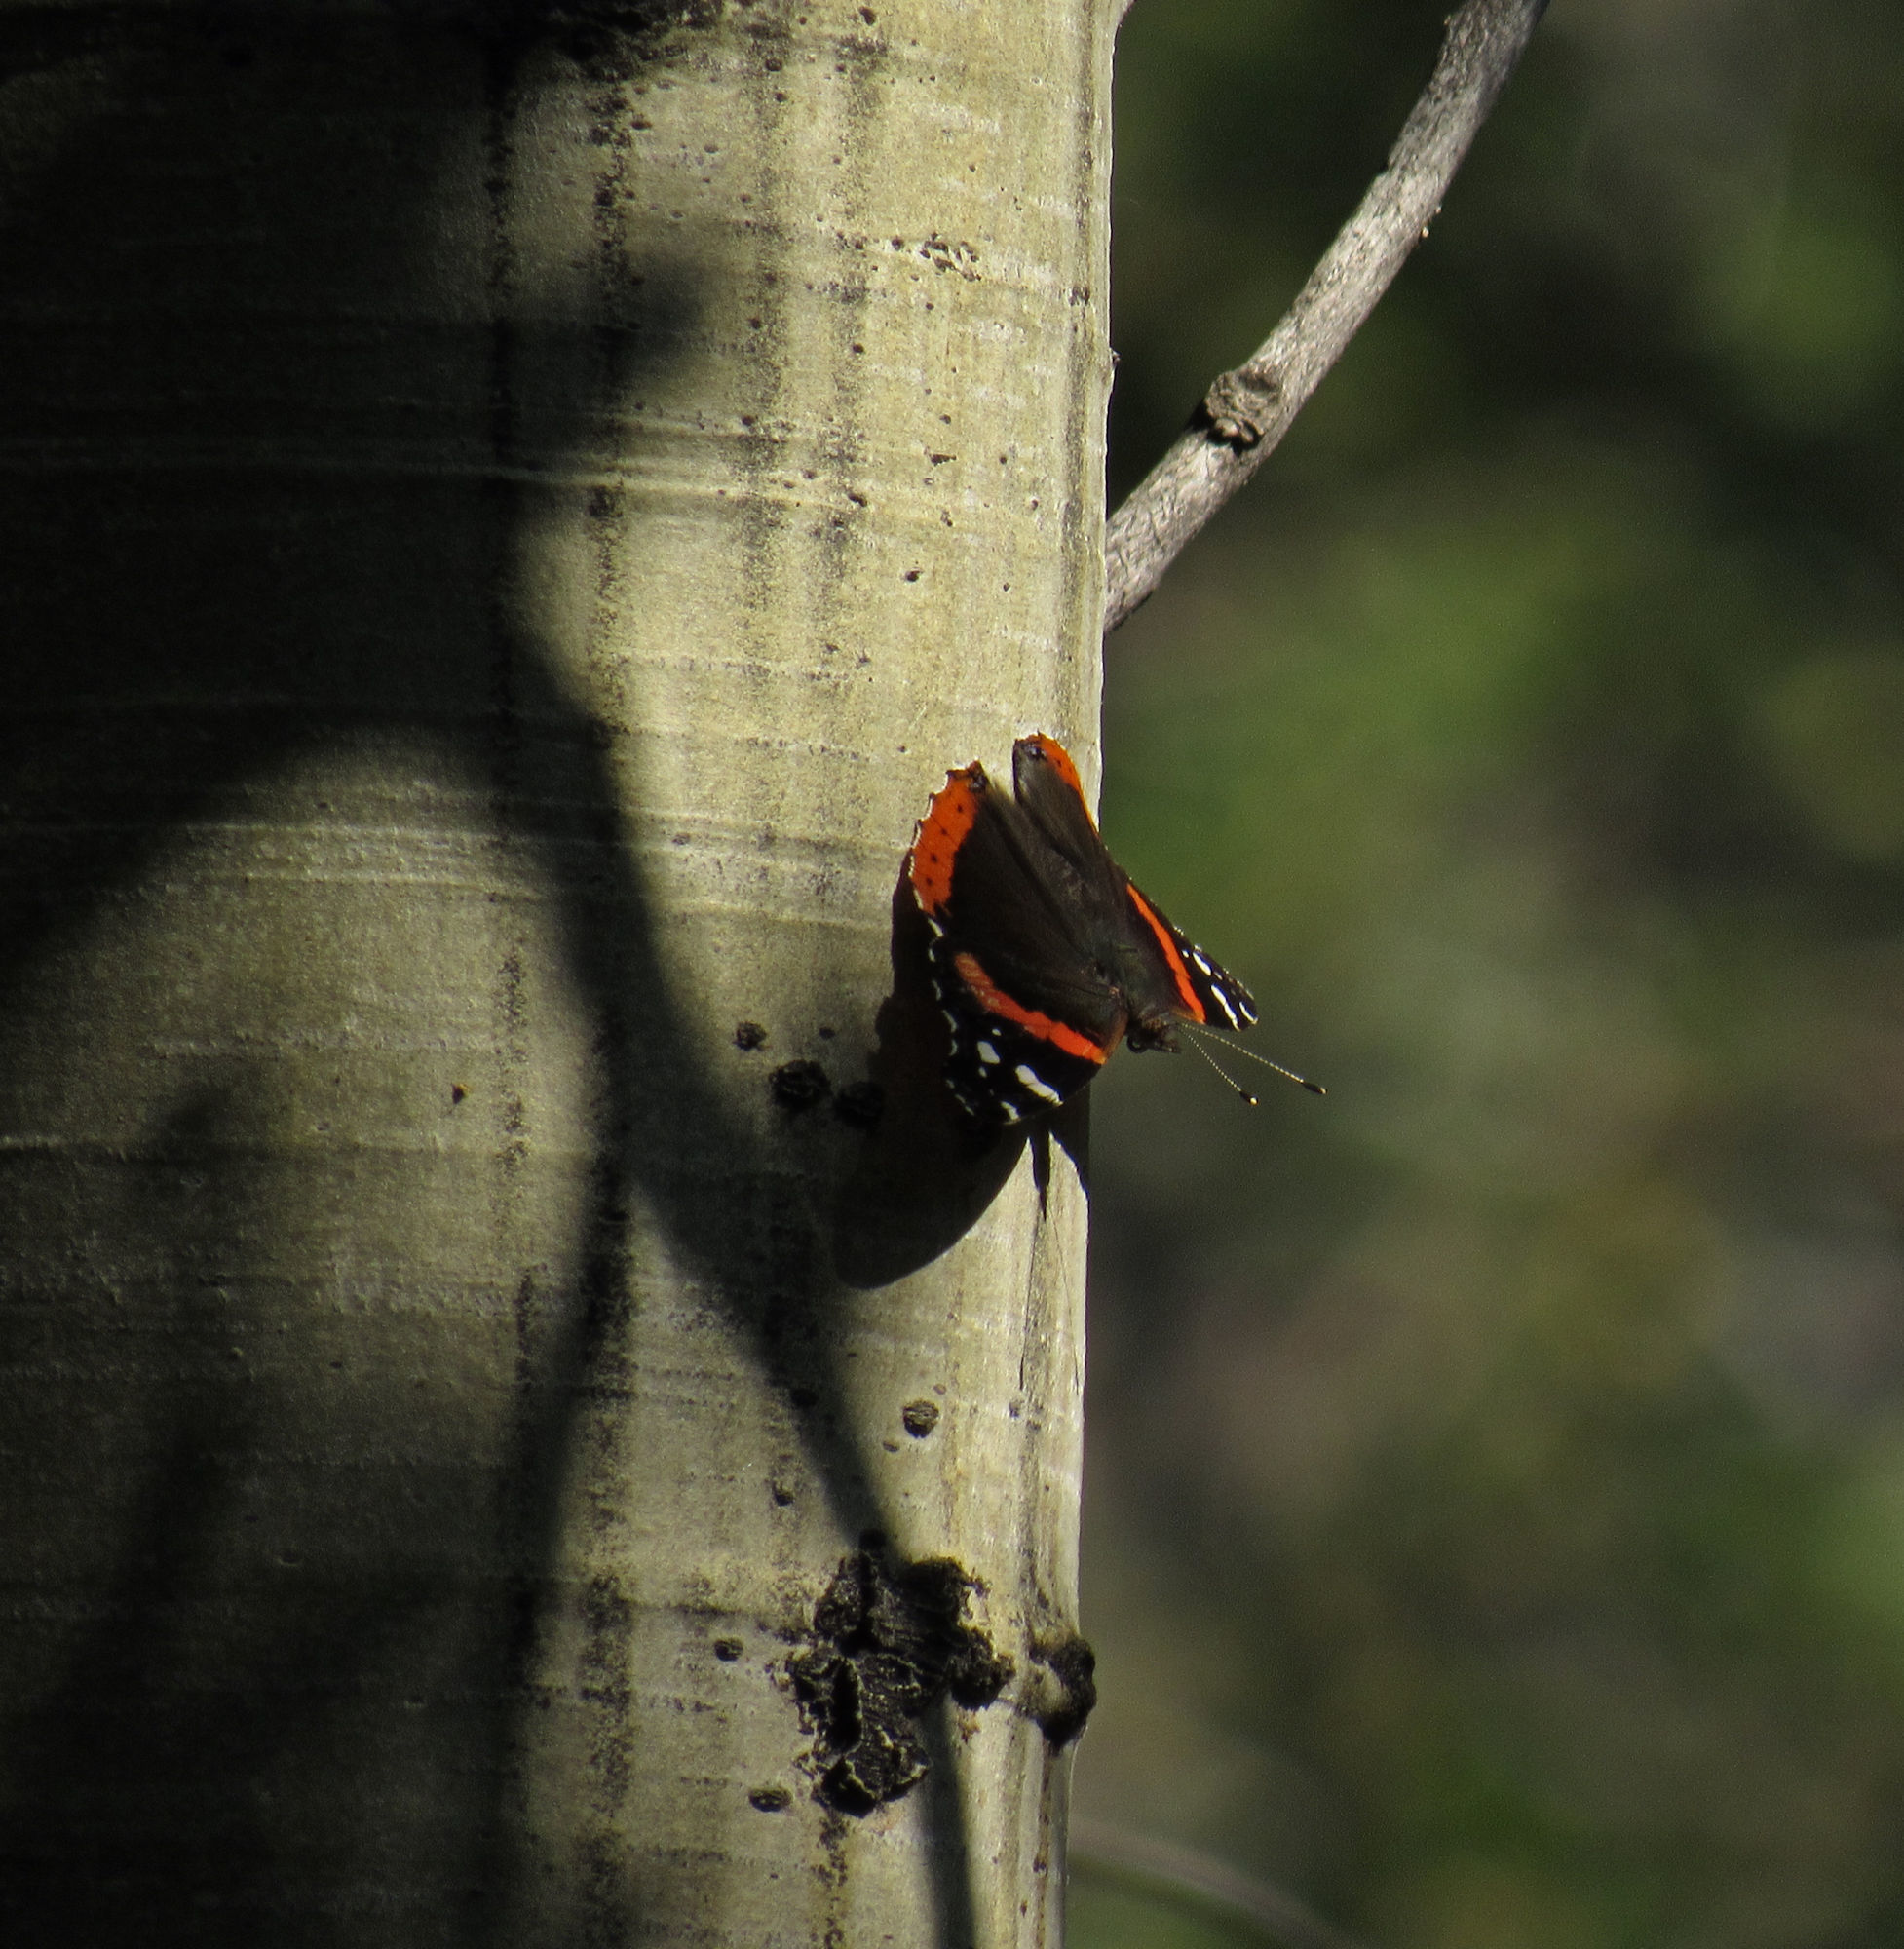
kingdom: Animalia
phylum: Arthropoda
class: Insecta
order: Lepidoptera
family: Nymphalidae
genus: Vanessa
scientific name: Vanessa atalanta
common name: Red admiral
